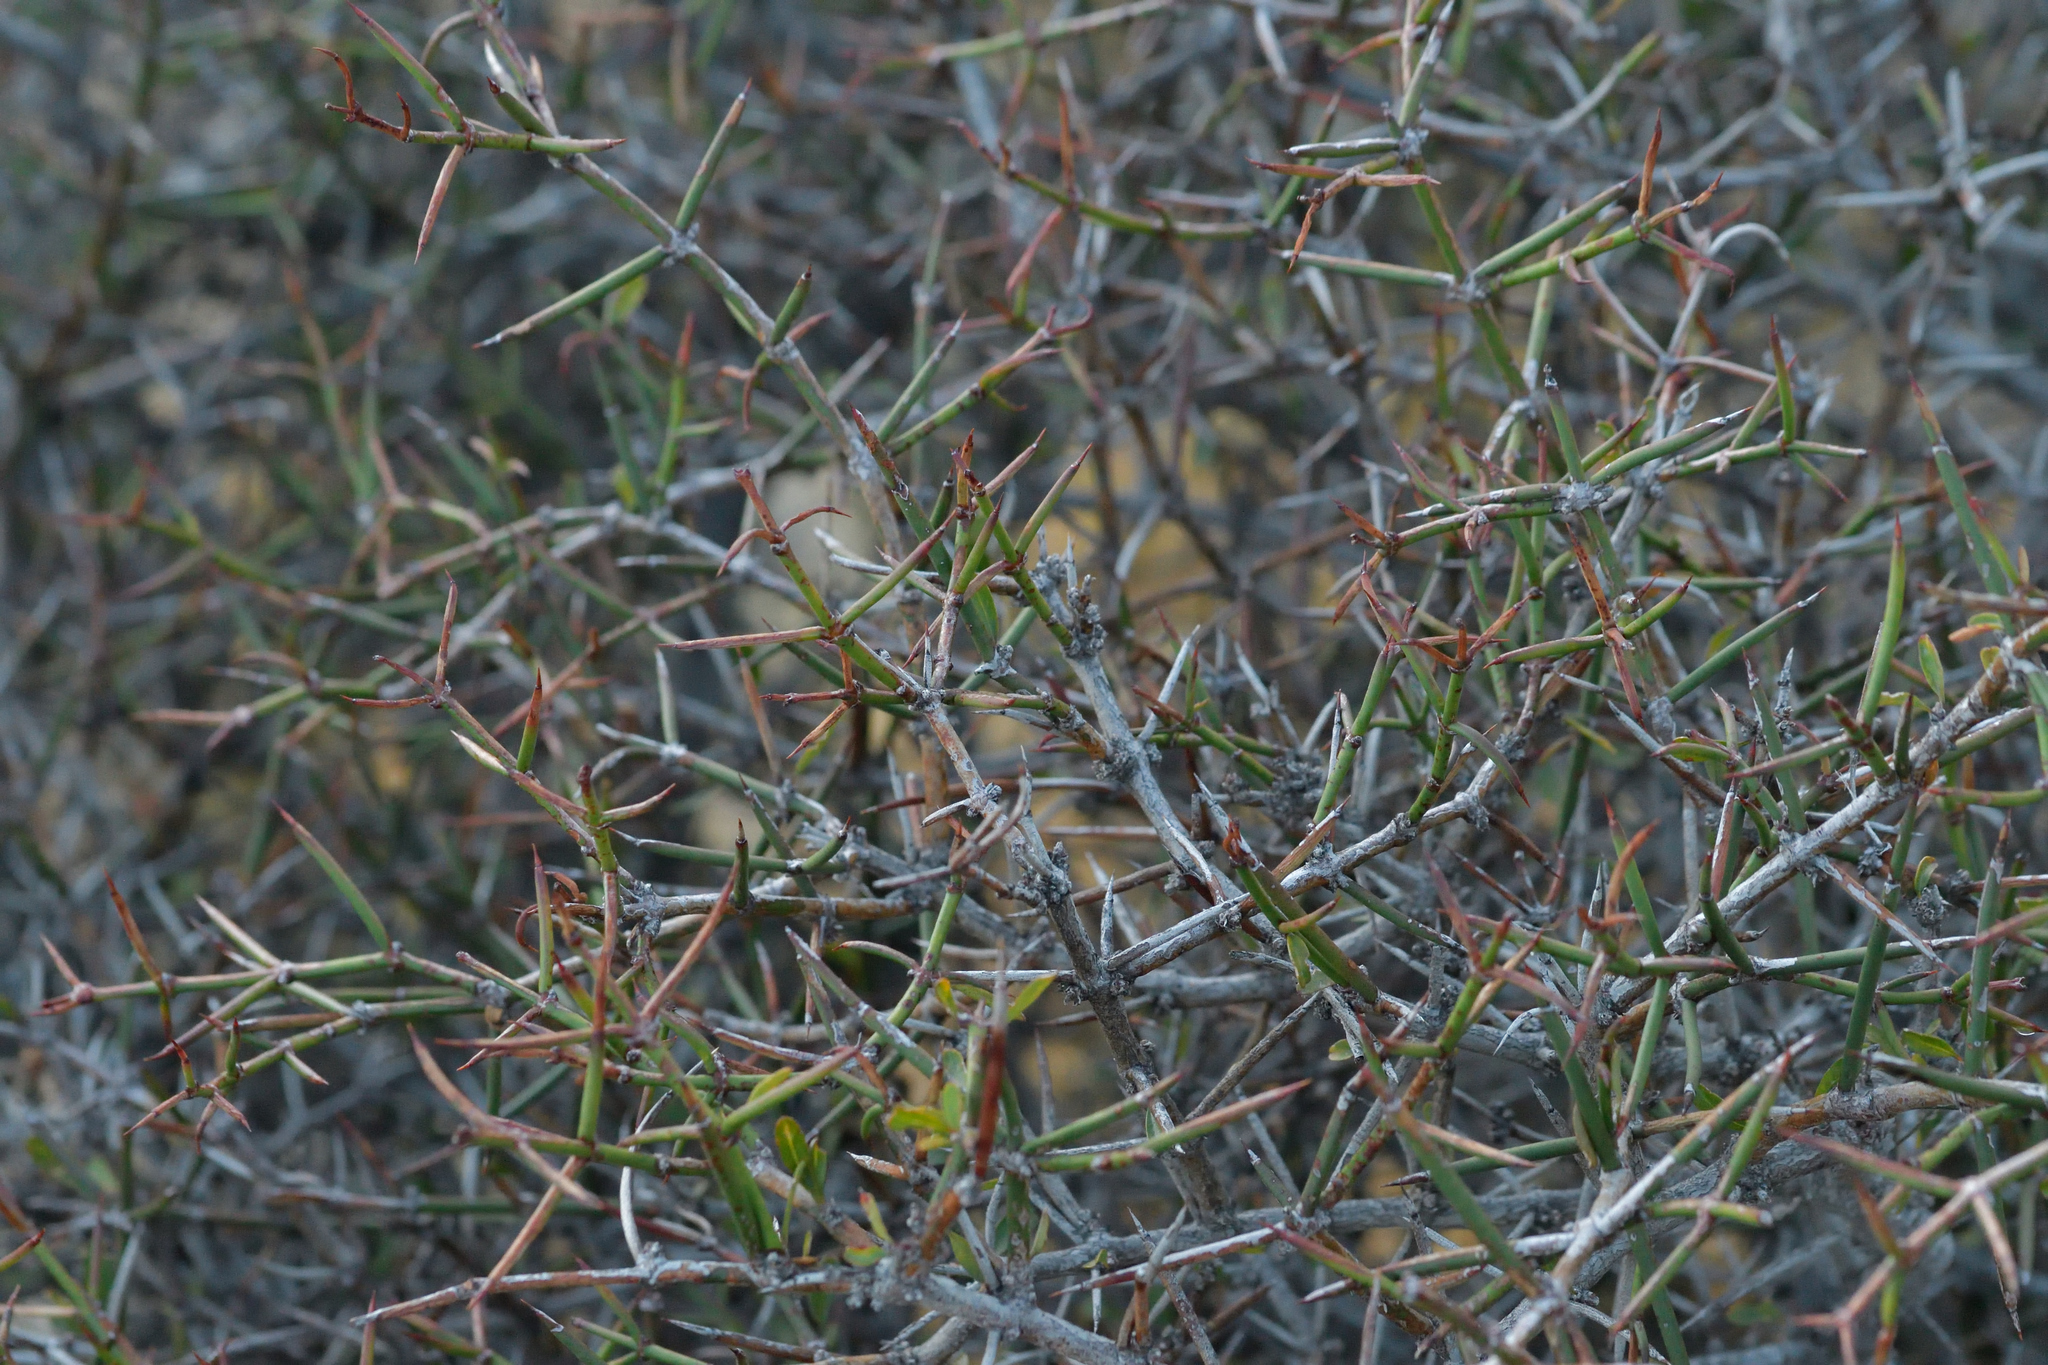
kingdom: Plantae
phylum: Tracheophyta
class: Magnoliopsida
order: Rosales
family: Rhamnaceae
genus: Discaria
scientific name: Discaria toumatou
